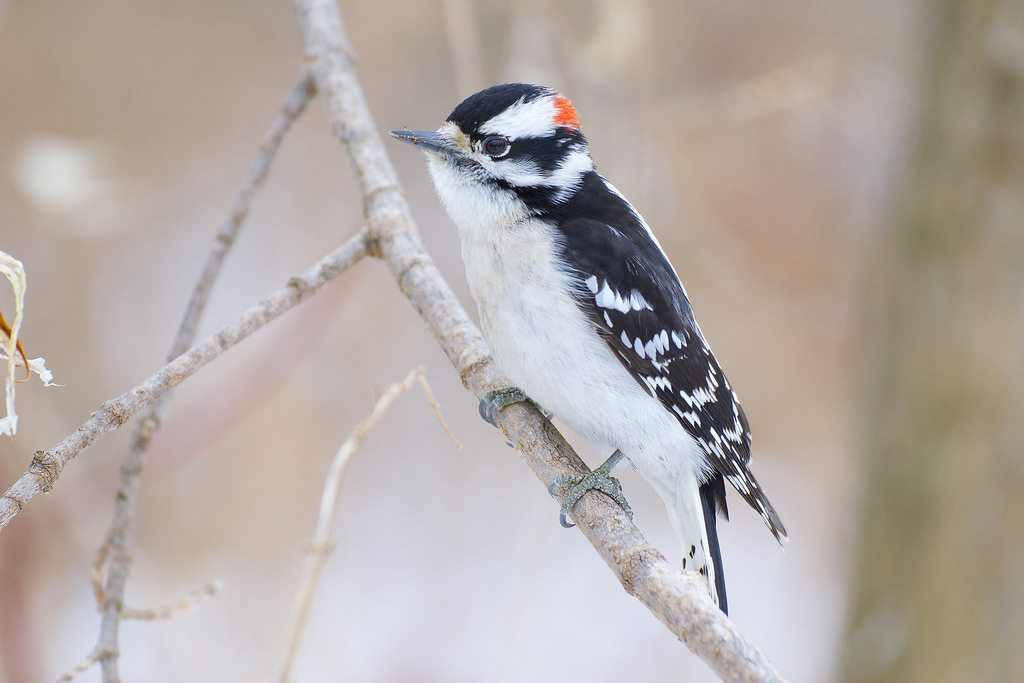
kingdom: Animalia
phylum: Chordata
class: Aves
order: Piciformes
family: Picidae
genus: Dryobates
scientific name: Dryobates pubescens
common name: Downy woodpecker
